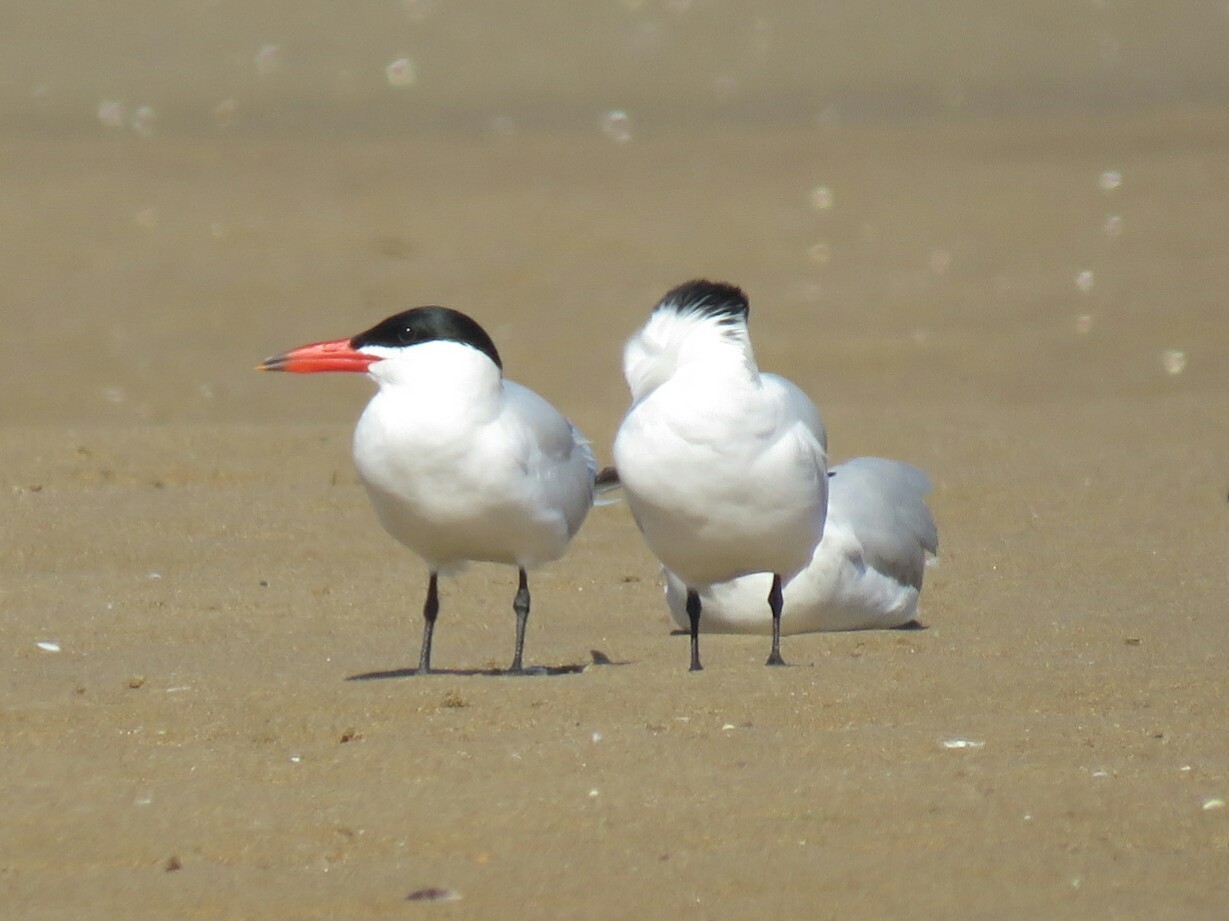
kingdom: Animalia
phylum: Chordata
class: Aves
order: Charadriiformes
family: Laridae
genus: Hydroprogne
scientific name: Hydroprogne caspia
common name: Caspian tern
